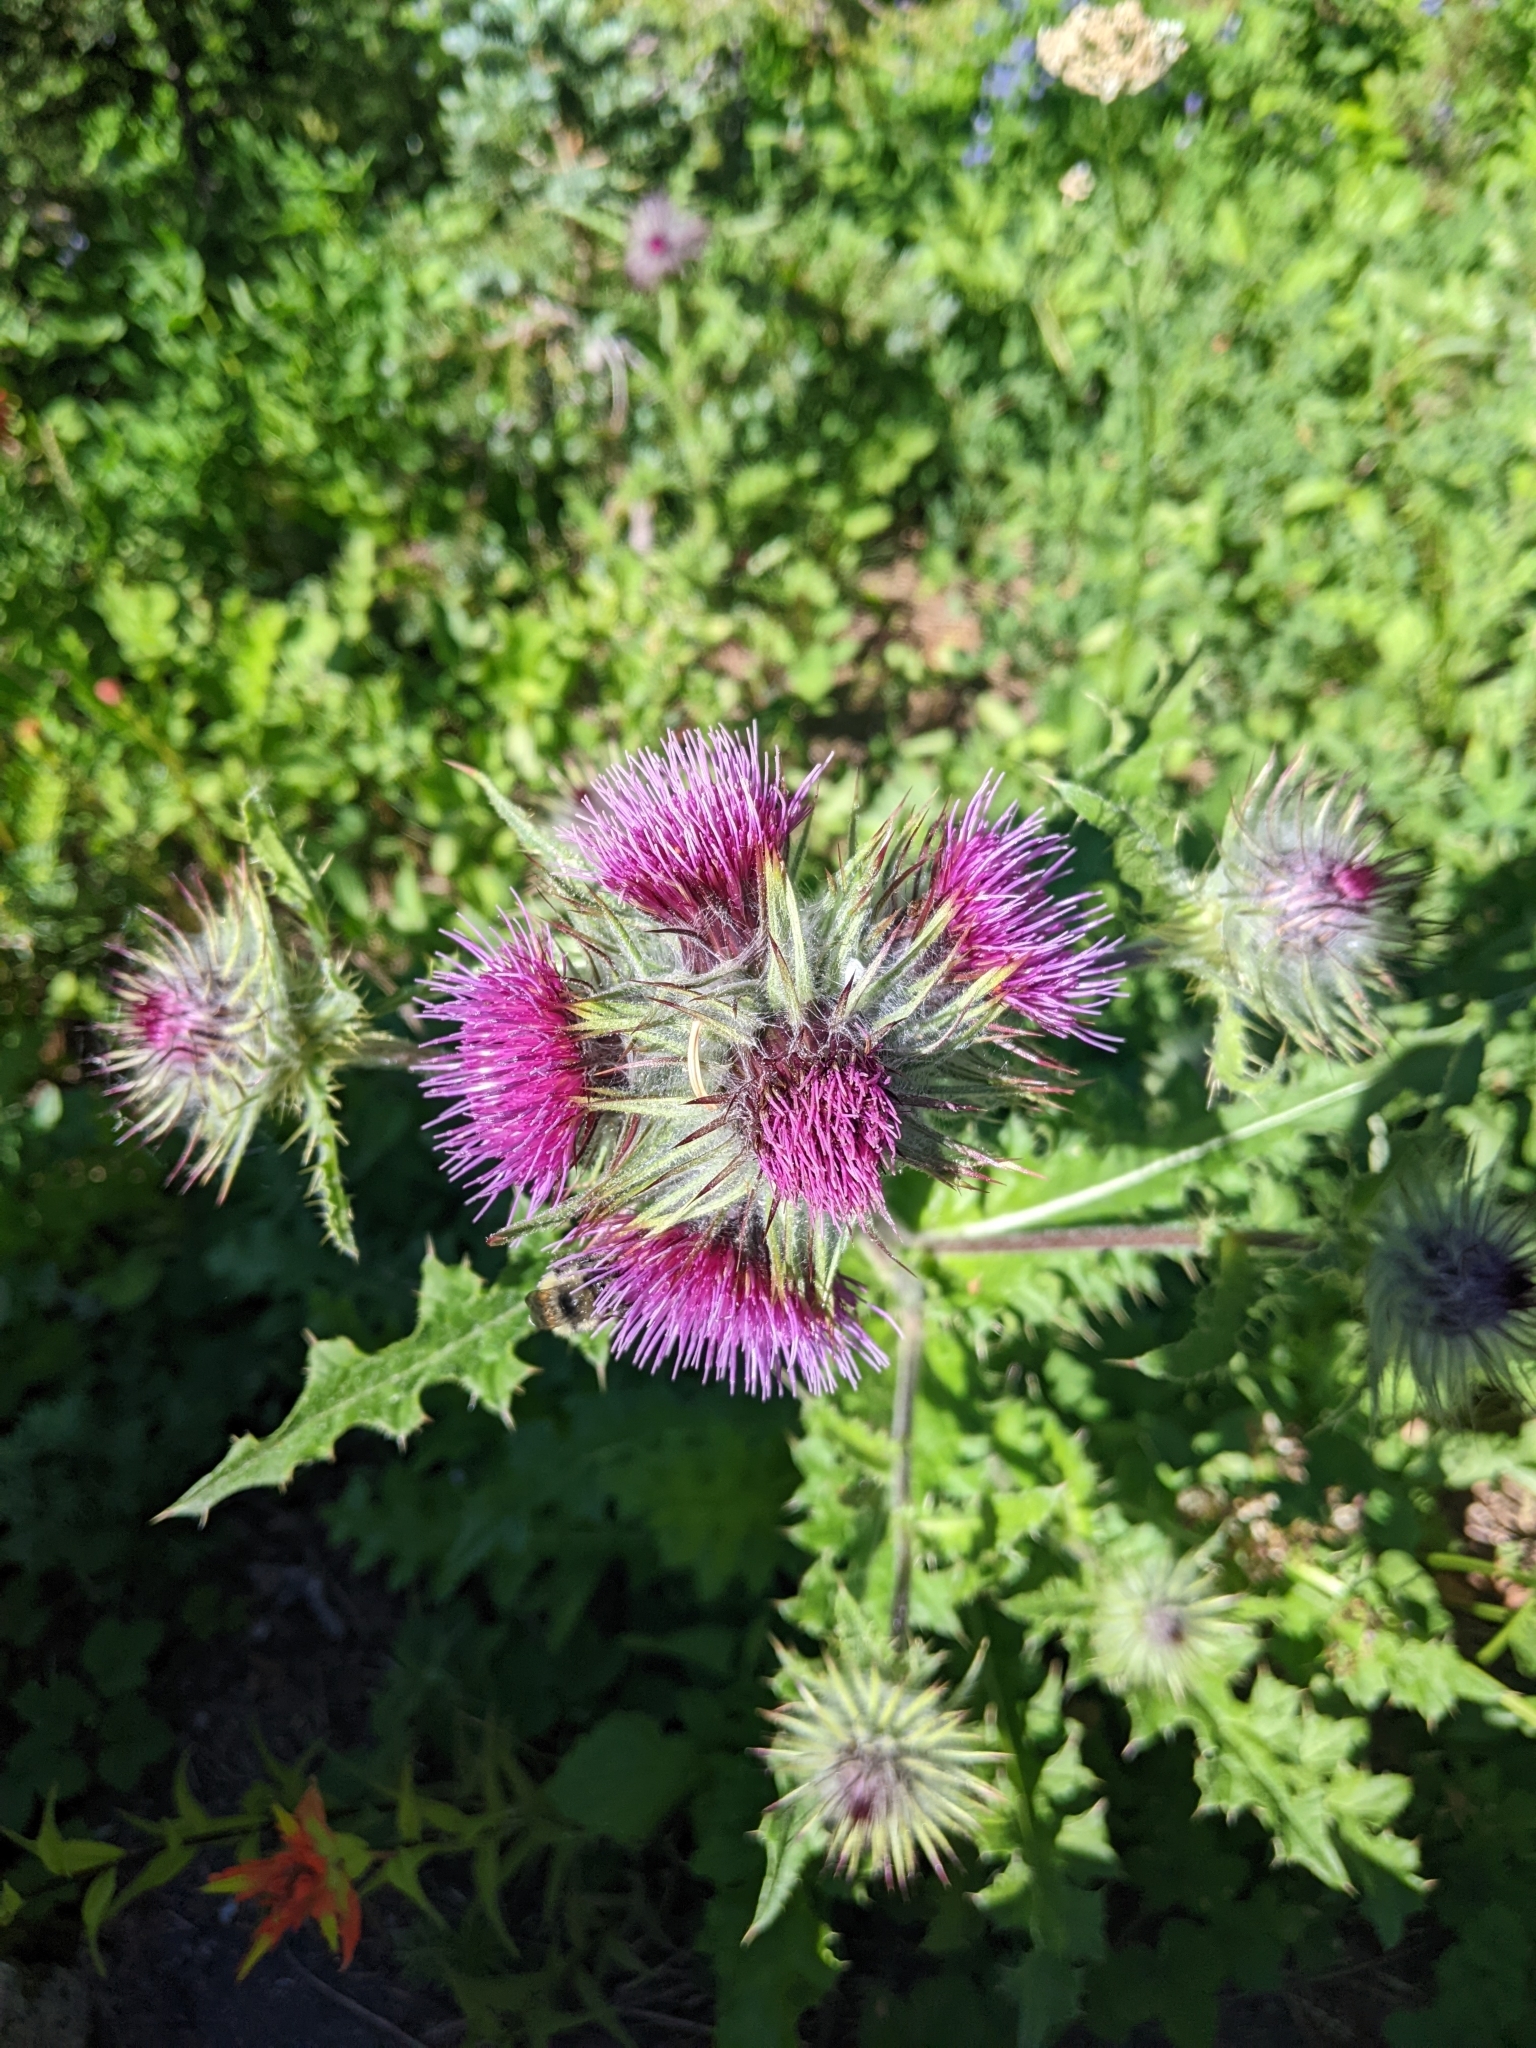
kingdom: Plantae
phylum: Tracheophyta
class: Magnoliopsida
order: Asterales
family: Asteraceae
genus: Cirsium
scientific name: Cirsium edule
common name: Indian thistle
